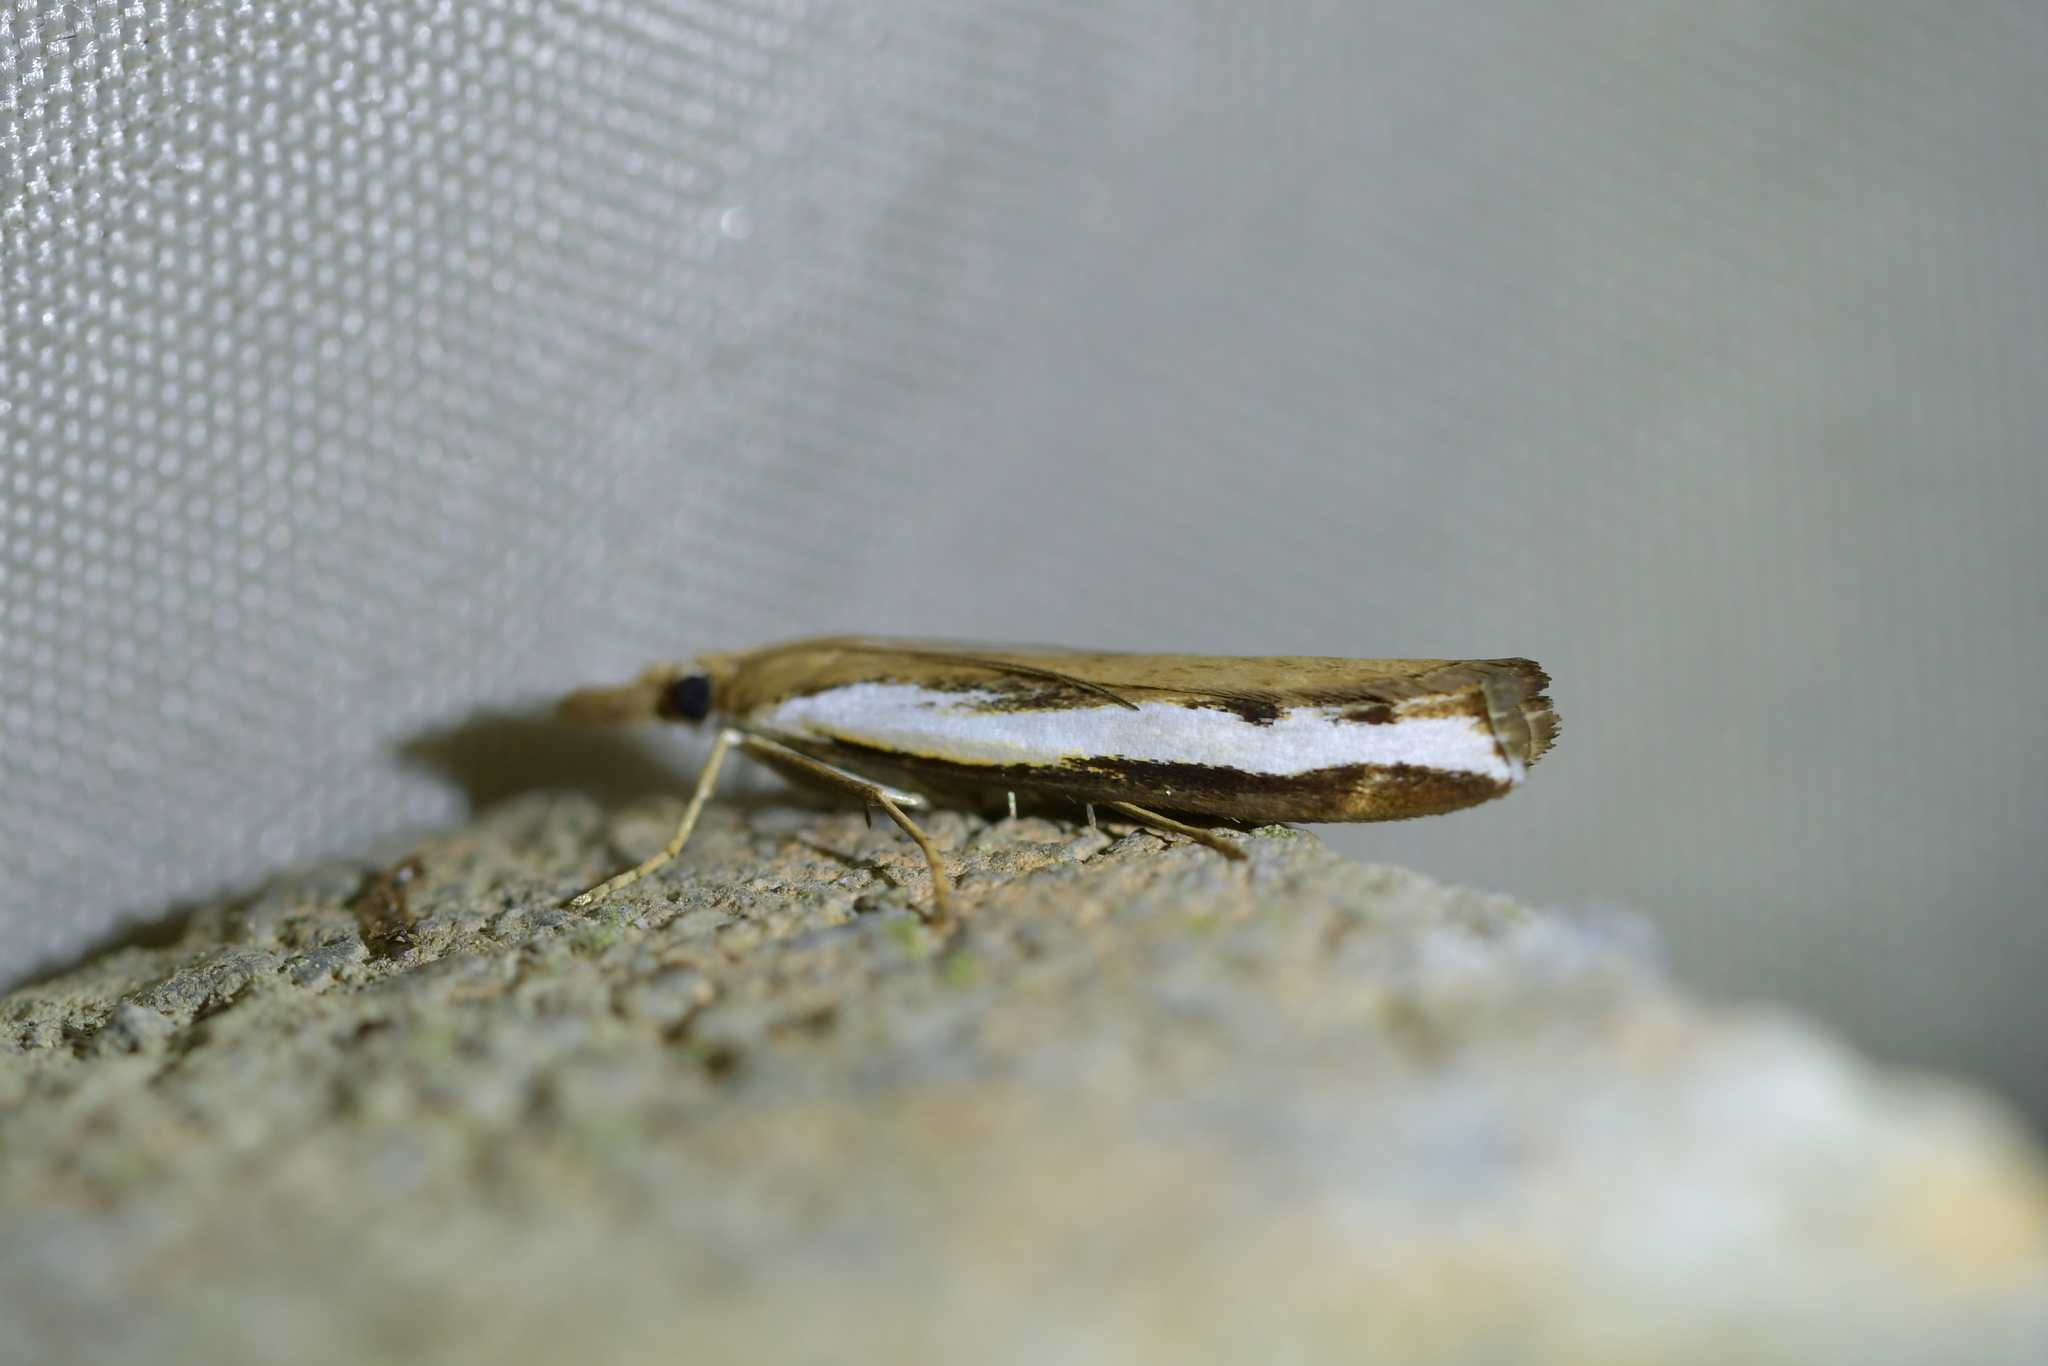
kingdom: Animalia
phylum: Arthropoda
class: Insecta
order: Lepidoptera
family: Crambidae
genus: Orocrambus
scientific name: Orocrambus flexuosellus
